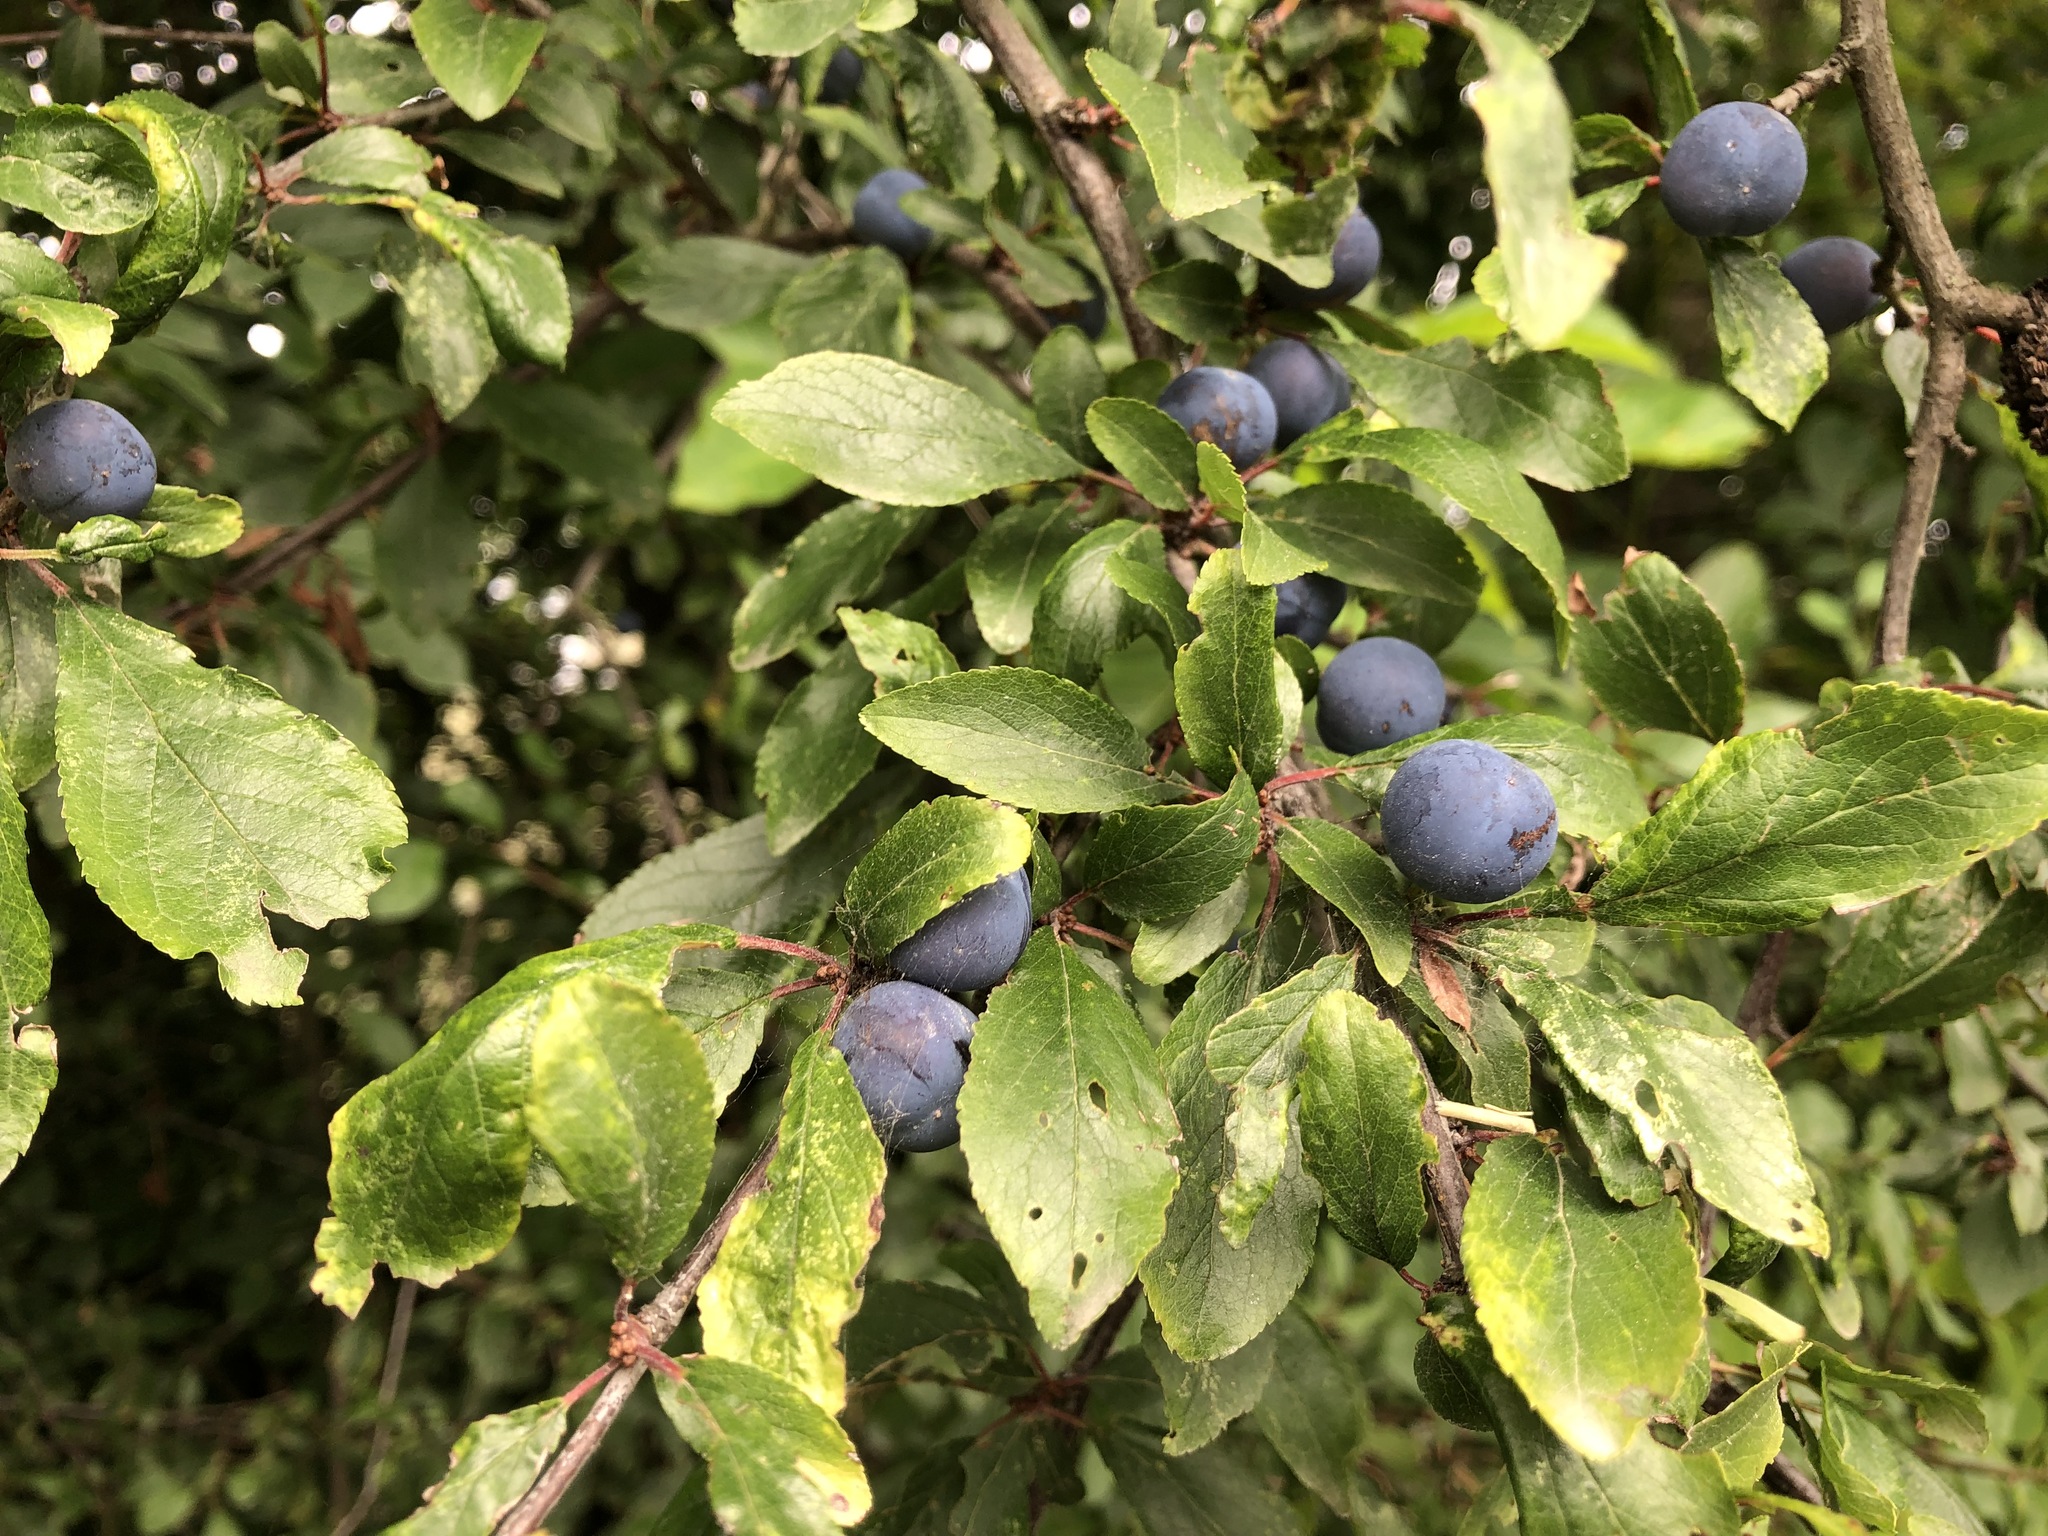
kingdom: Plantae
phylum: Tracheophyta
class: Magnoliopsida
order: Rosales
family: Rosaceae
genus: Prunus
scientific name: Prunus spinosa
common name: Blackthorn
